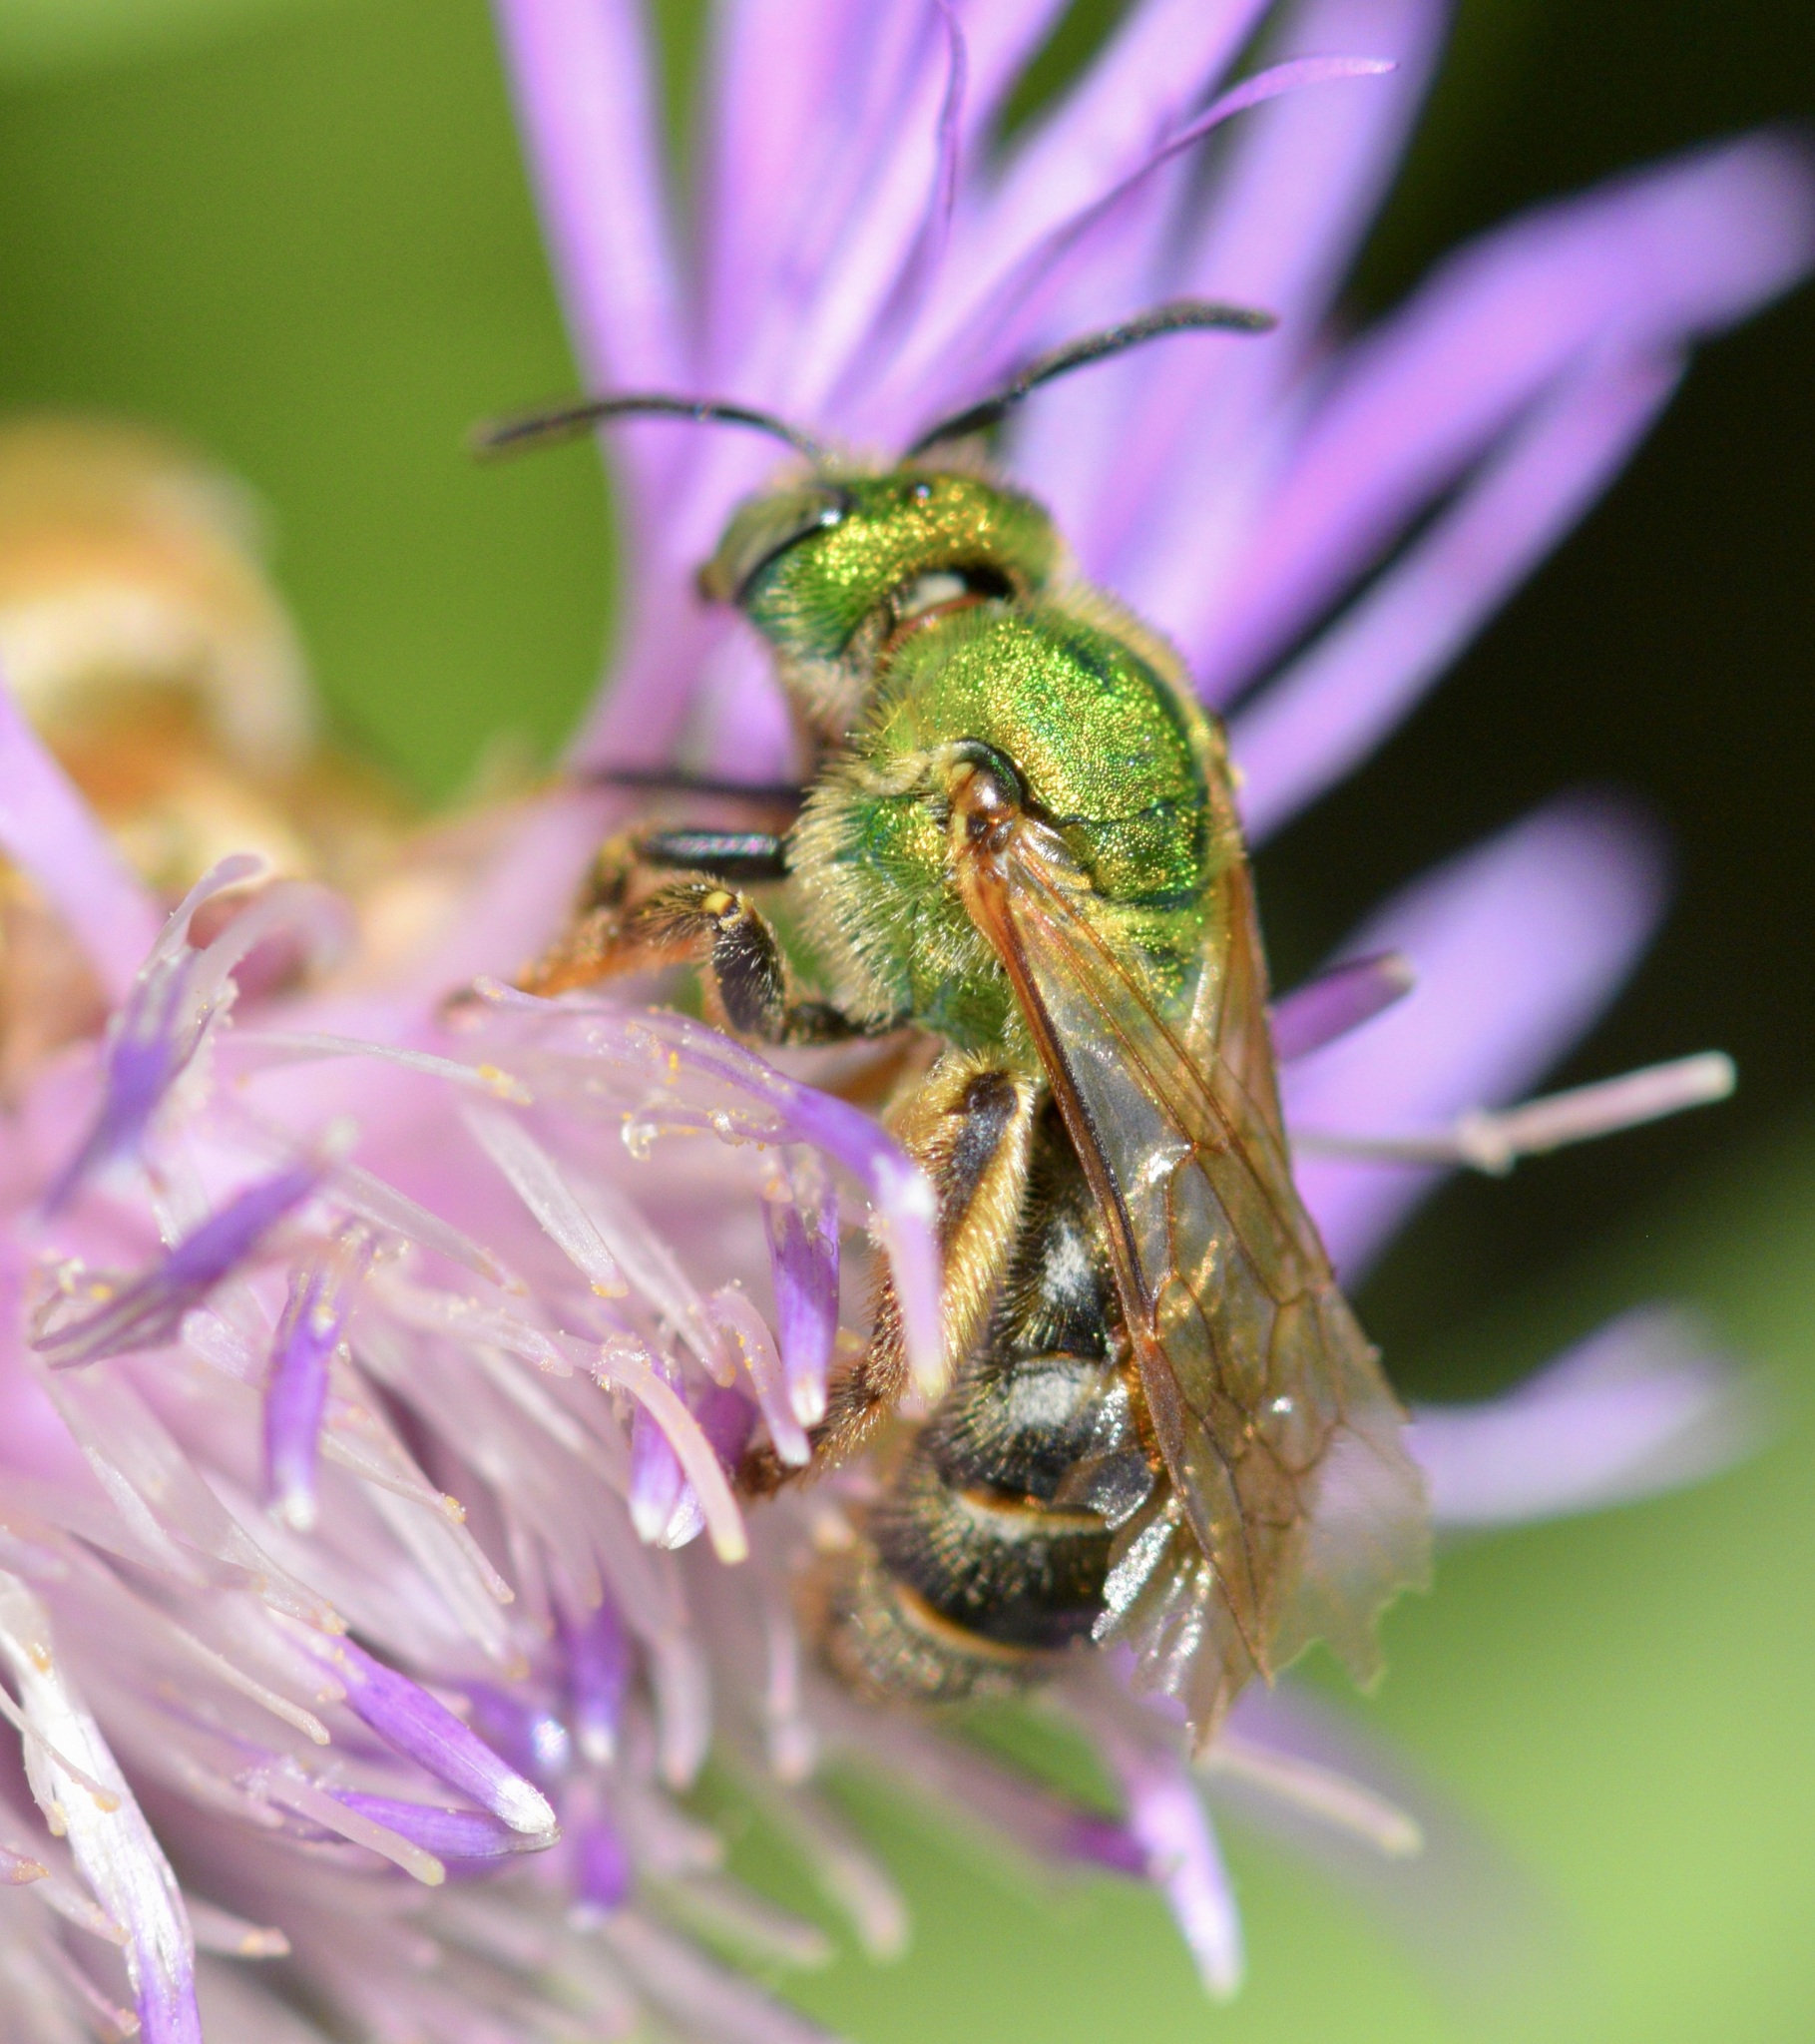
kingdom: Animalia
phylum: Arthropoda
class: Insecta
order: Hymenoptera
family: Halictidae
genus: Agapostemon
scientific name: Agapostemon virescens
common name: Bicolored striped sweat bee
